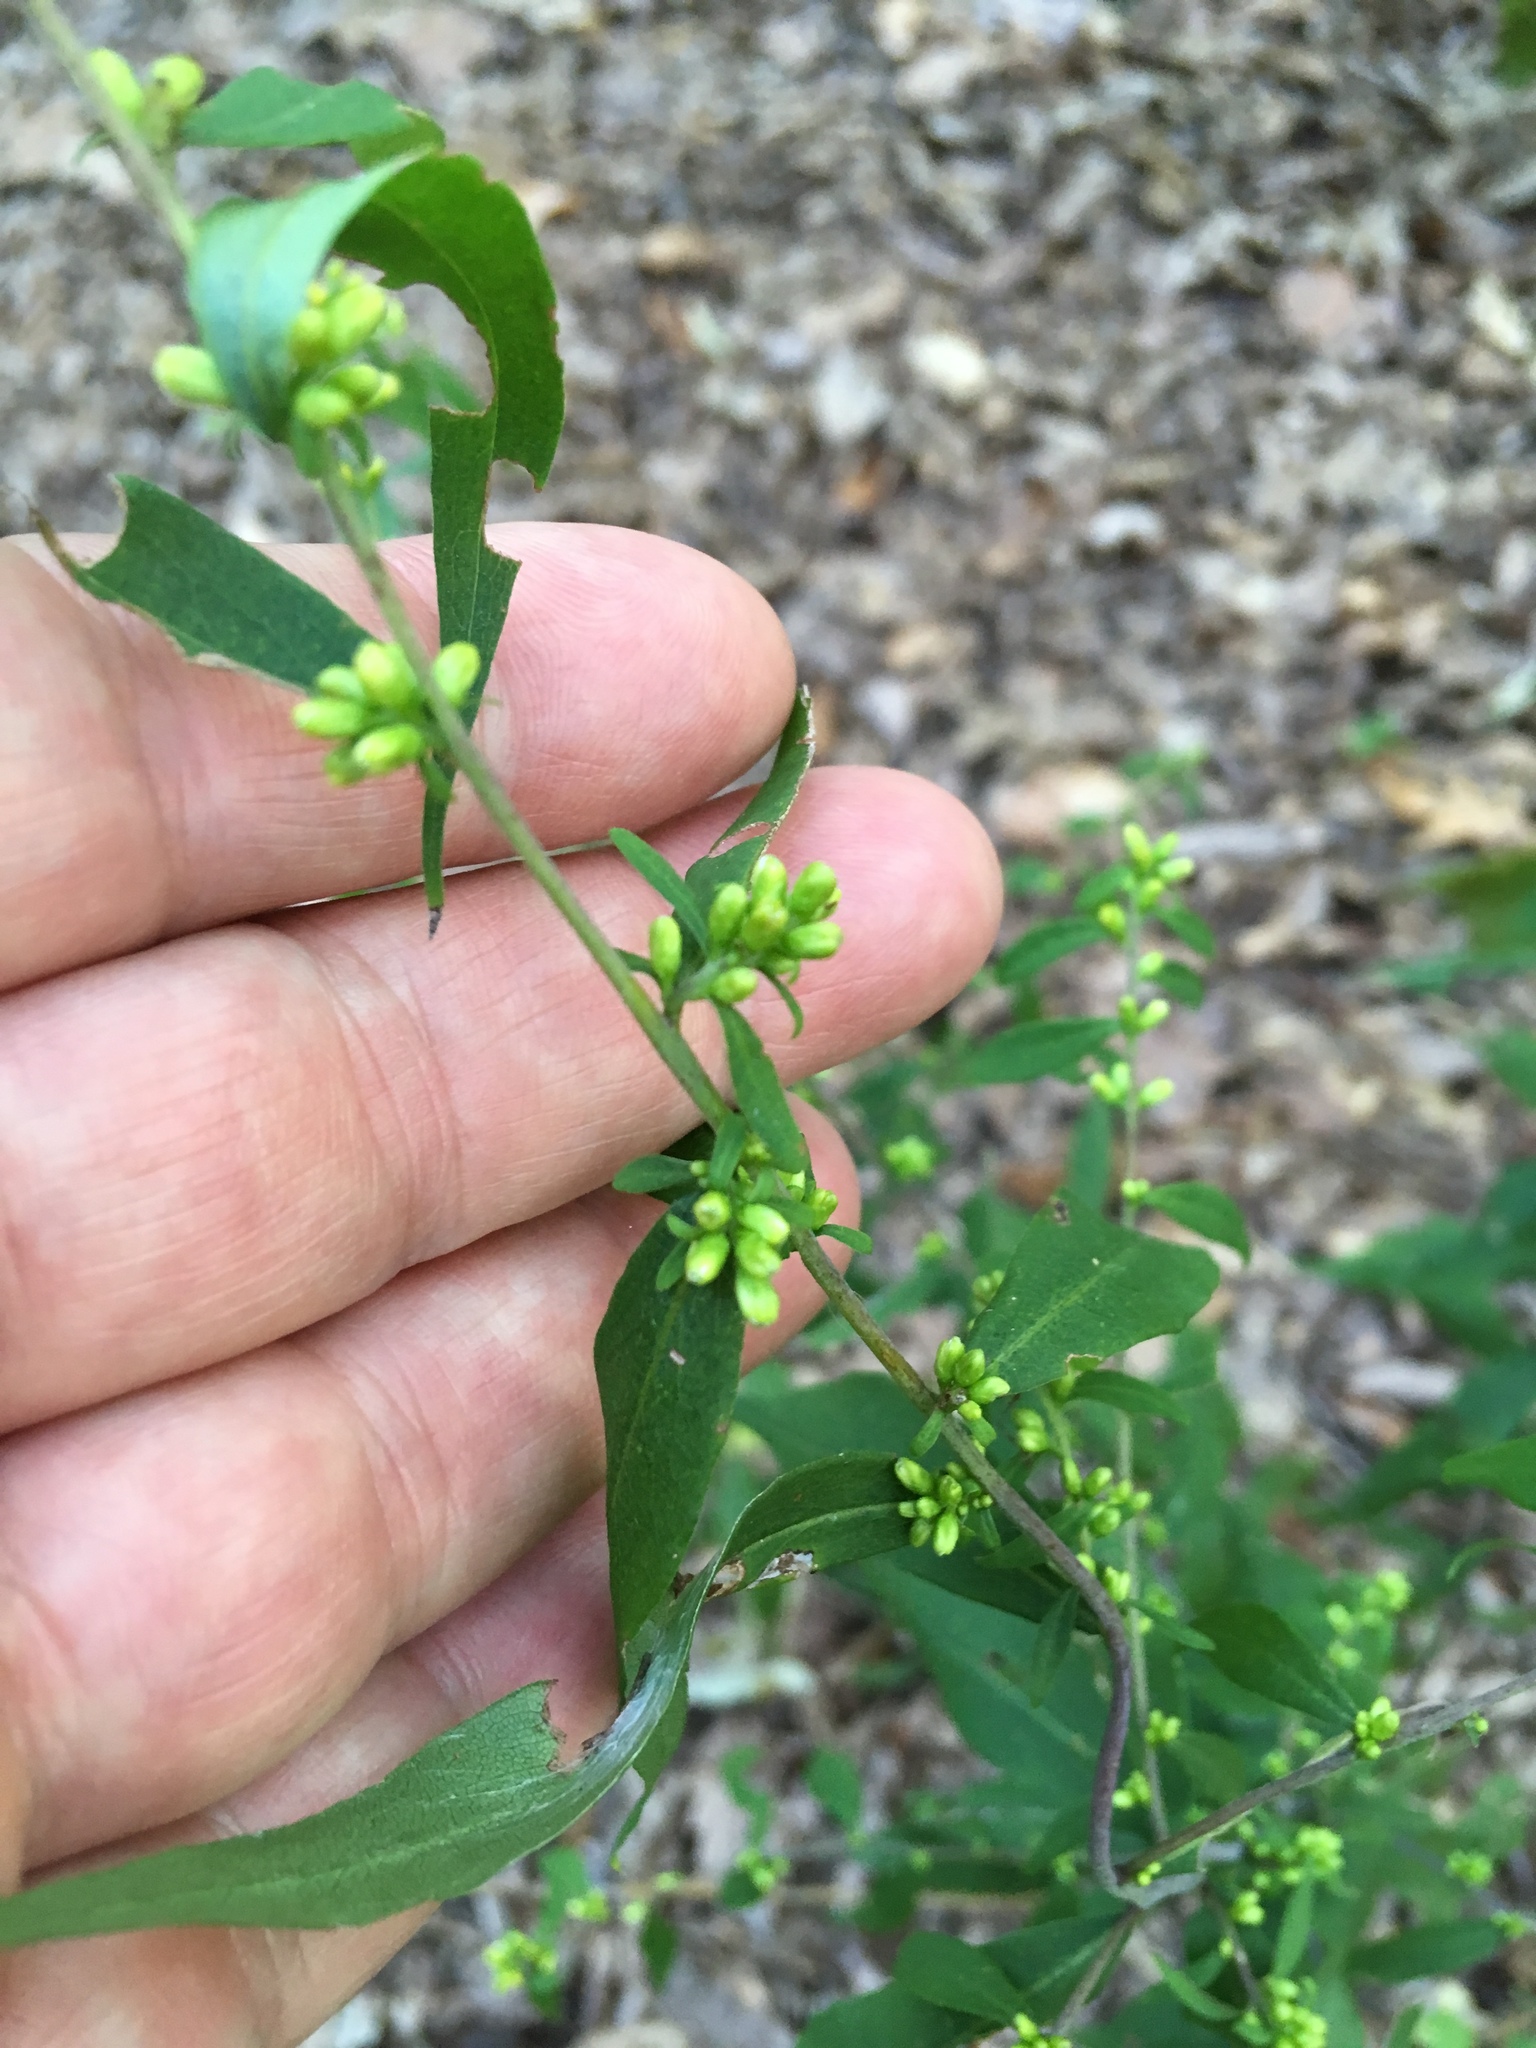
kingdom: Plantae
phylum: Tracheophyta
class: Magnoliopsida
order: Asterales
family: Asteraceae
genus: Solidago
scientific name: Solidago caesia
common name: Woodland goldenrod
